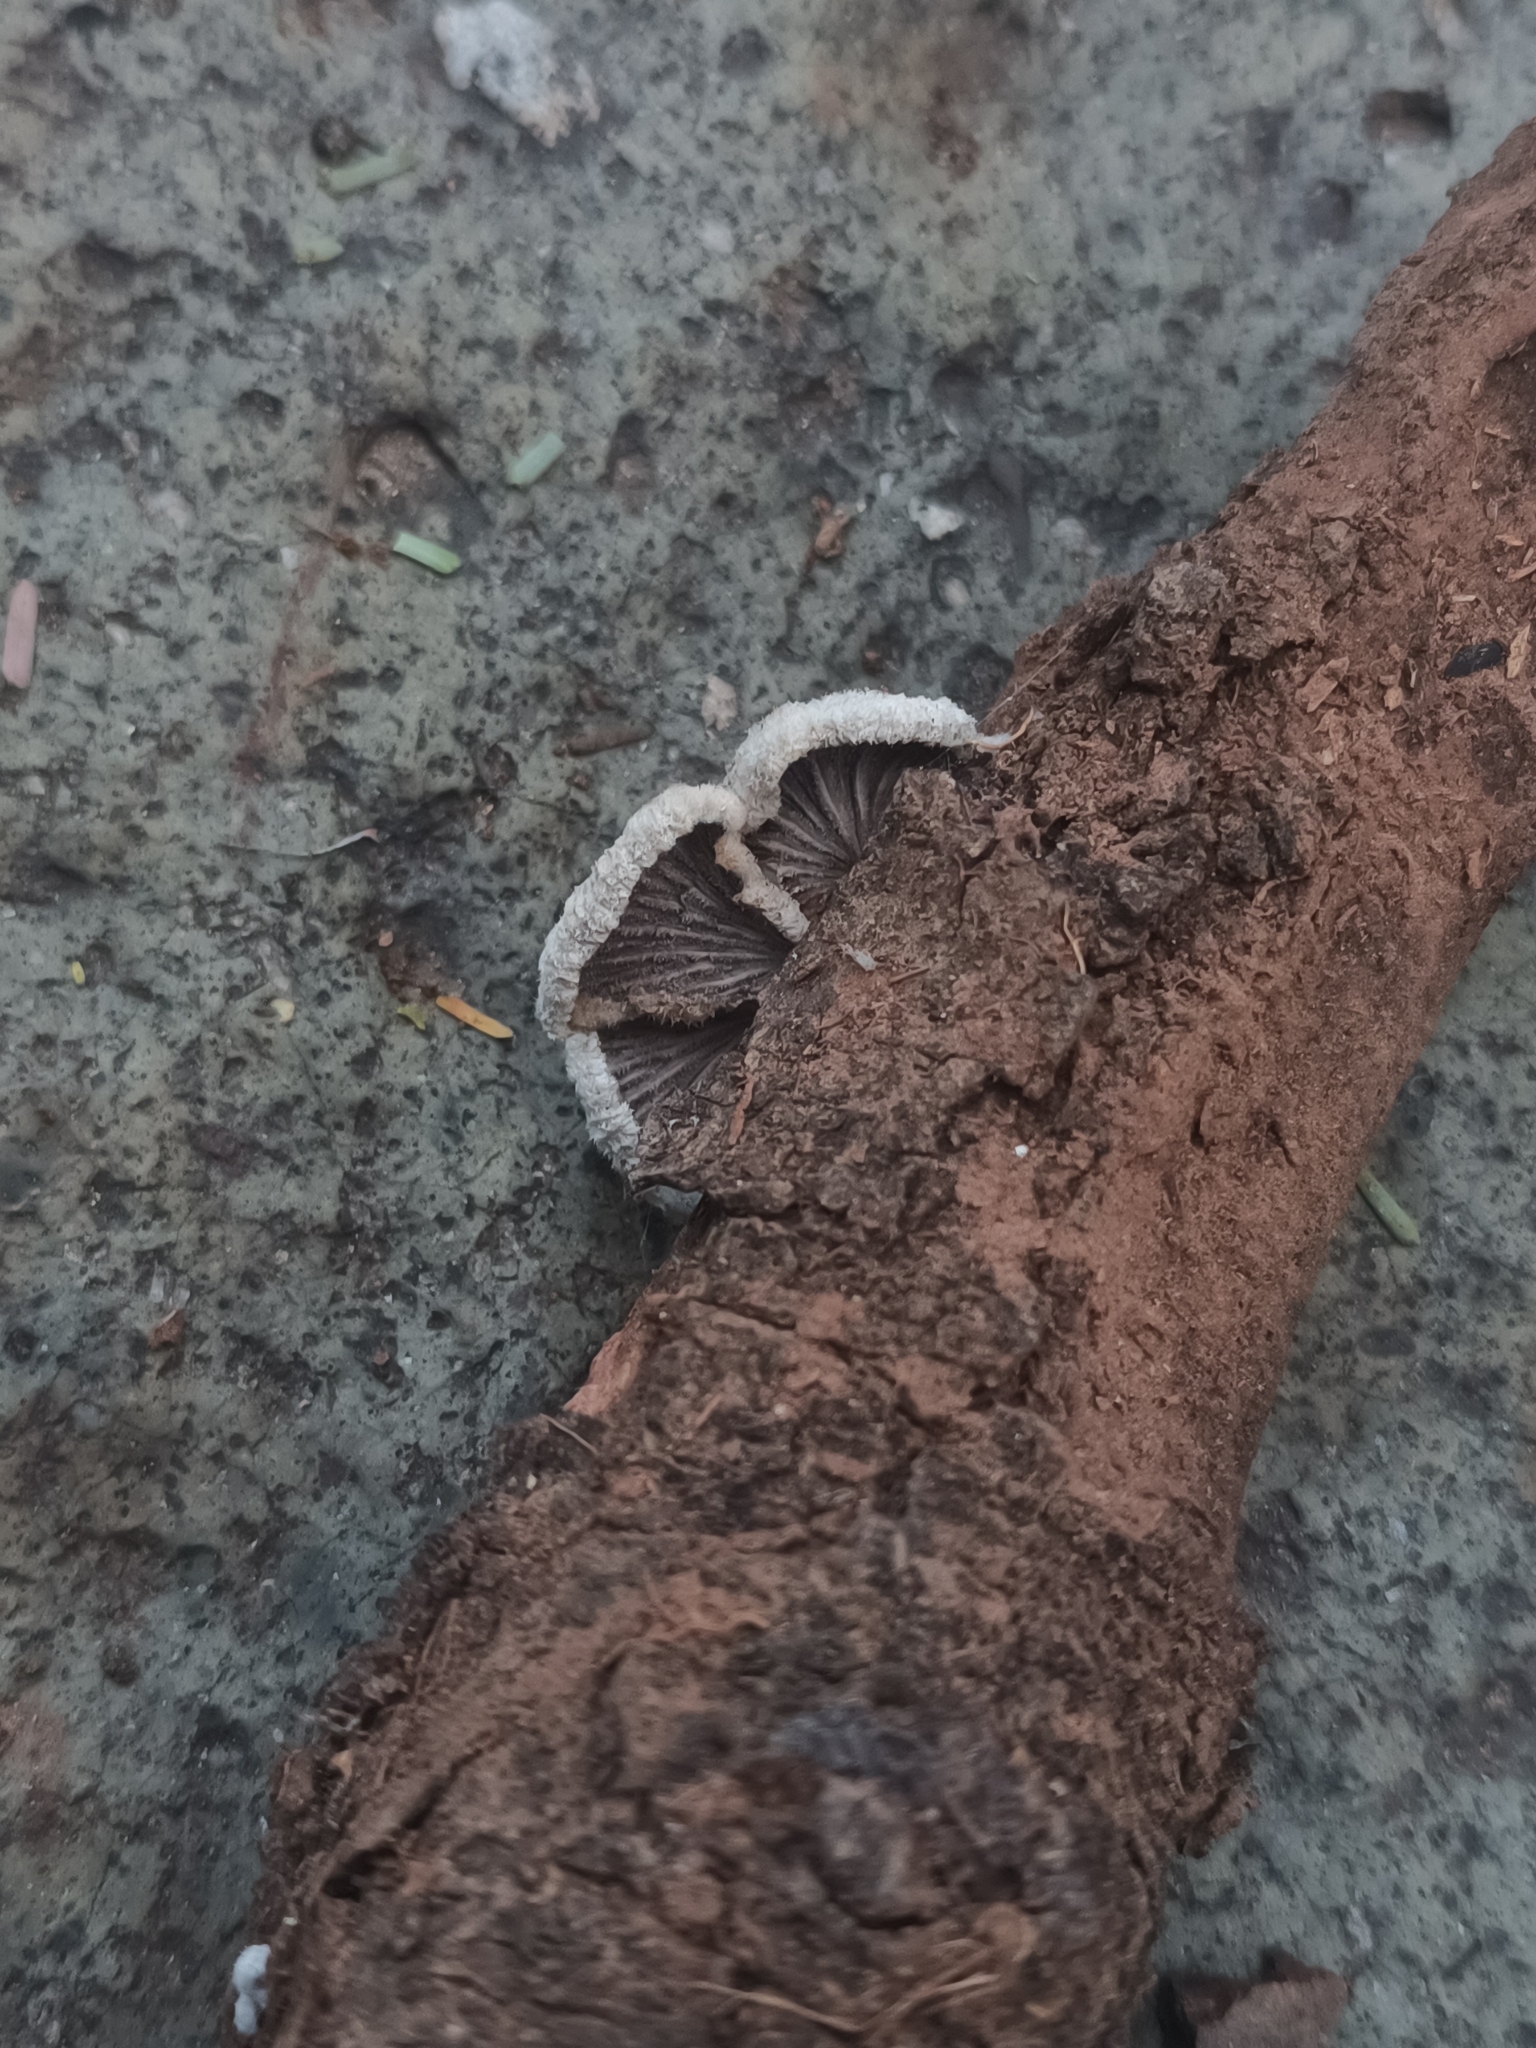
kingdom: Fungi
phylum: Basidiomycota
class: Agaricomycetes
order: Agaricales
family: Schizophyllaceae
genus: Schizophyllum
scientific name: Schizophyllum commune
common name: Common porecrust
